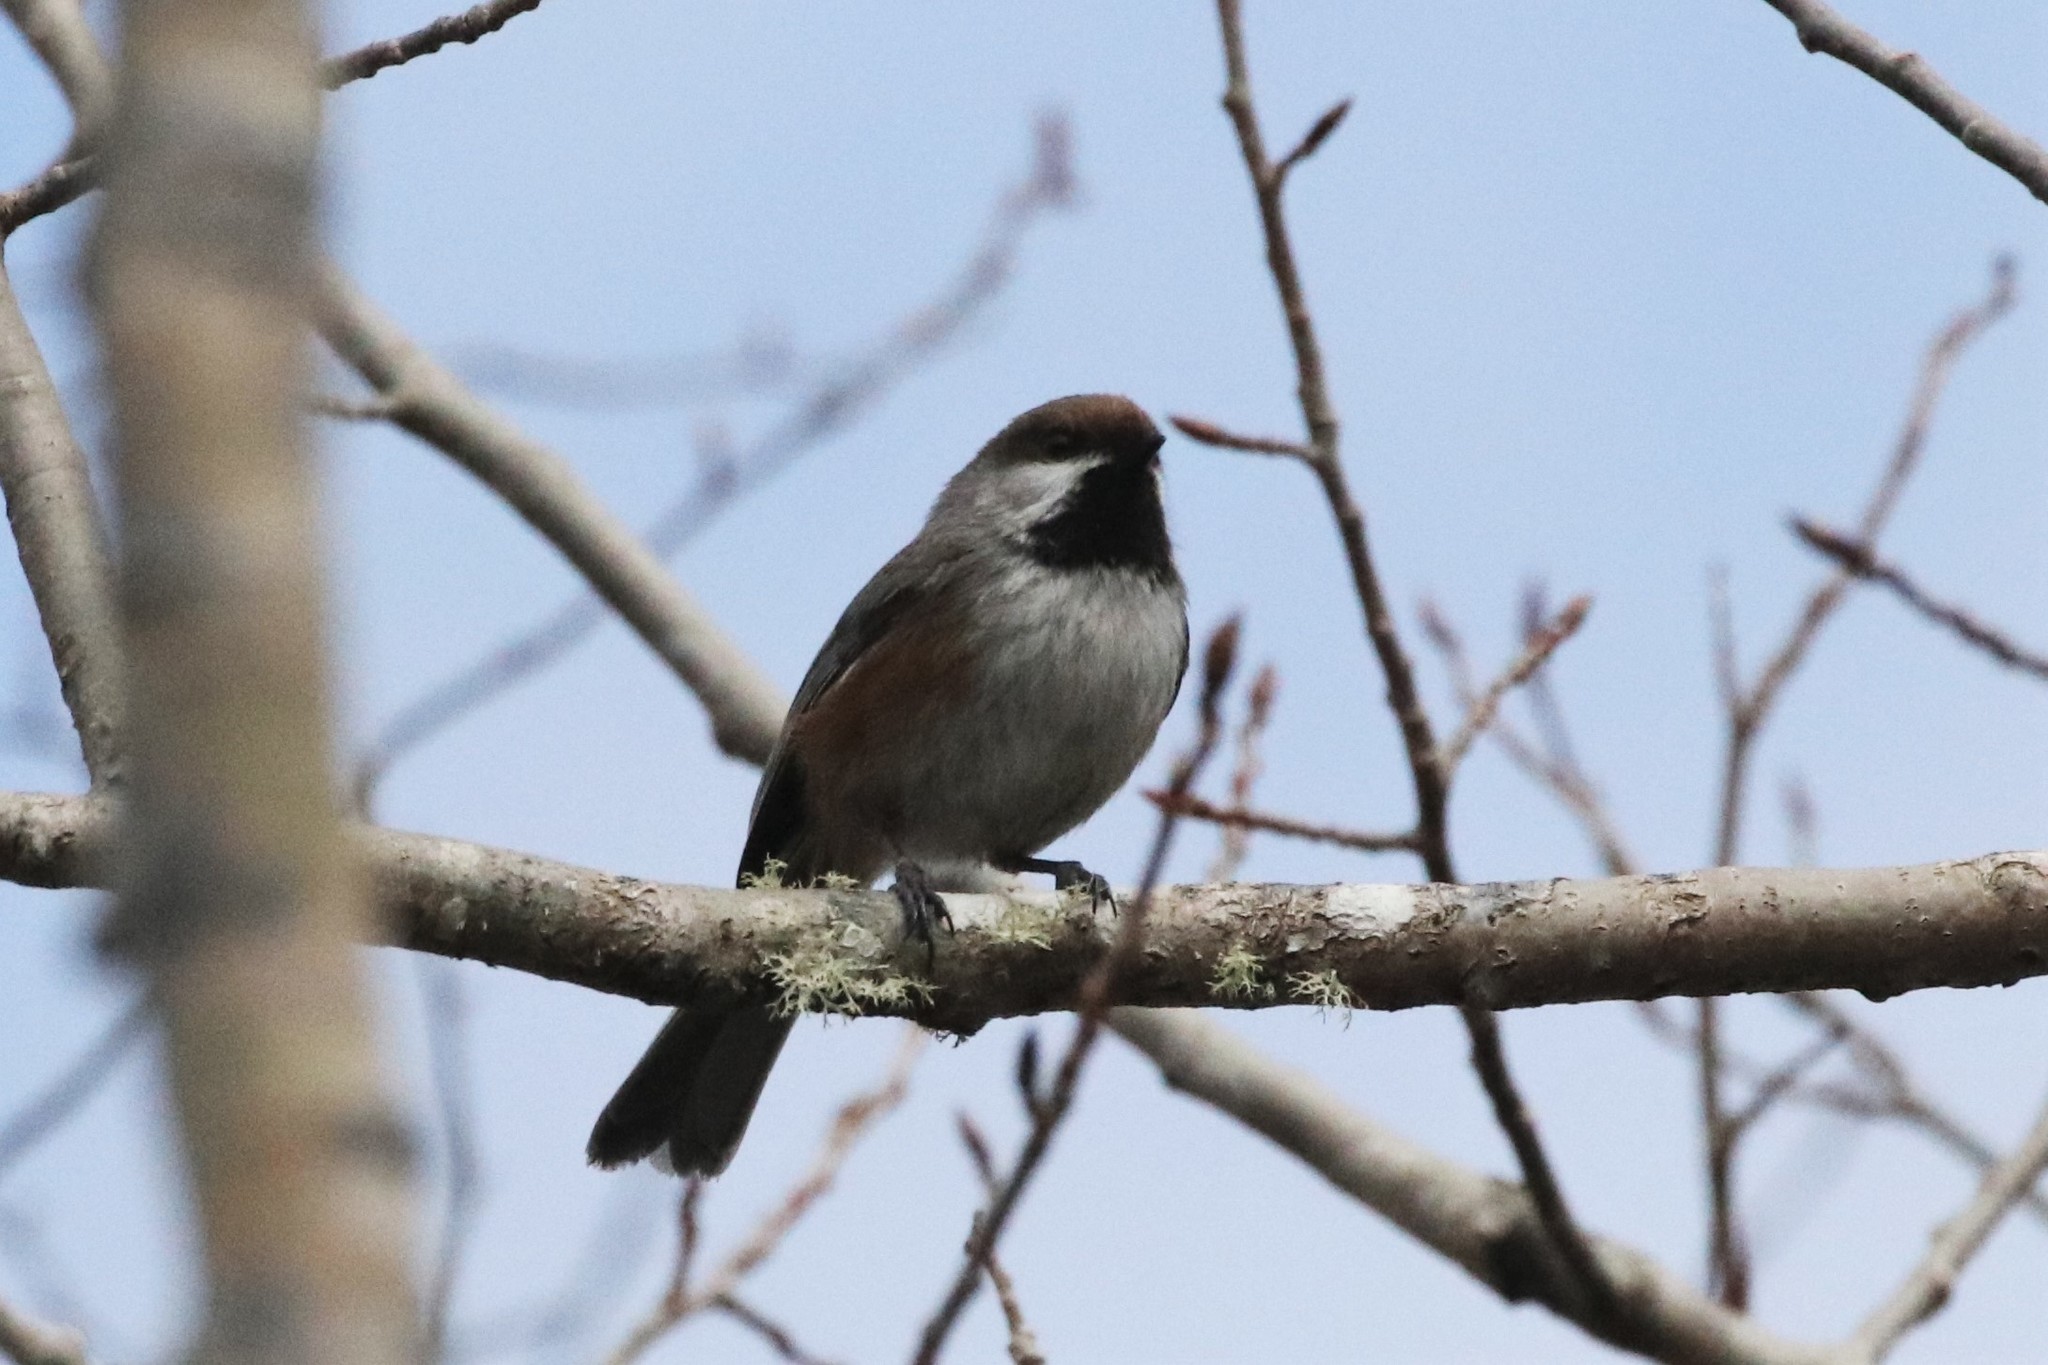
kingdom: Animalia
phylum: Chordata
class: Aves
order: Passeriformes
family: Paridae
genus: Poecile
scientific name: Poecile hudsonicus
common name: Boreal chickadee
